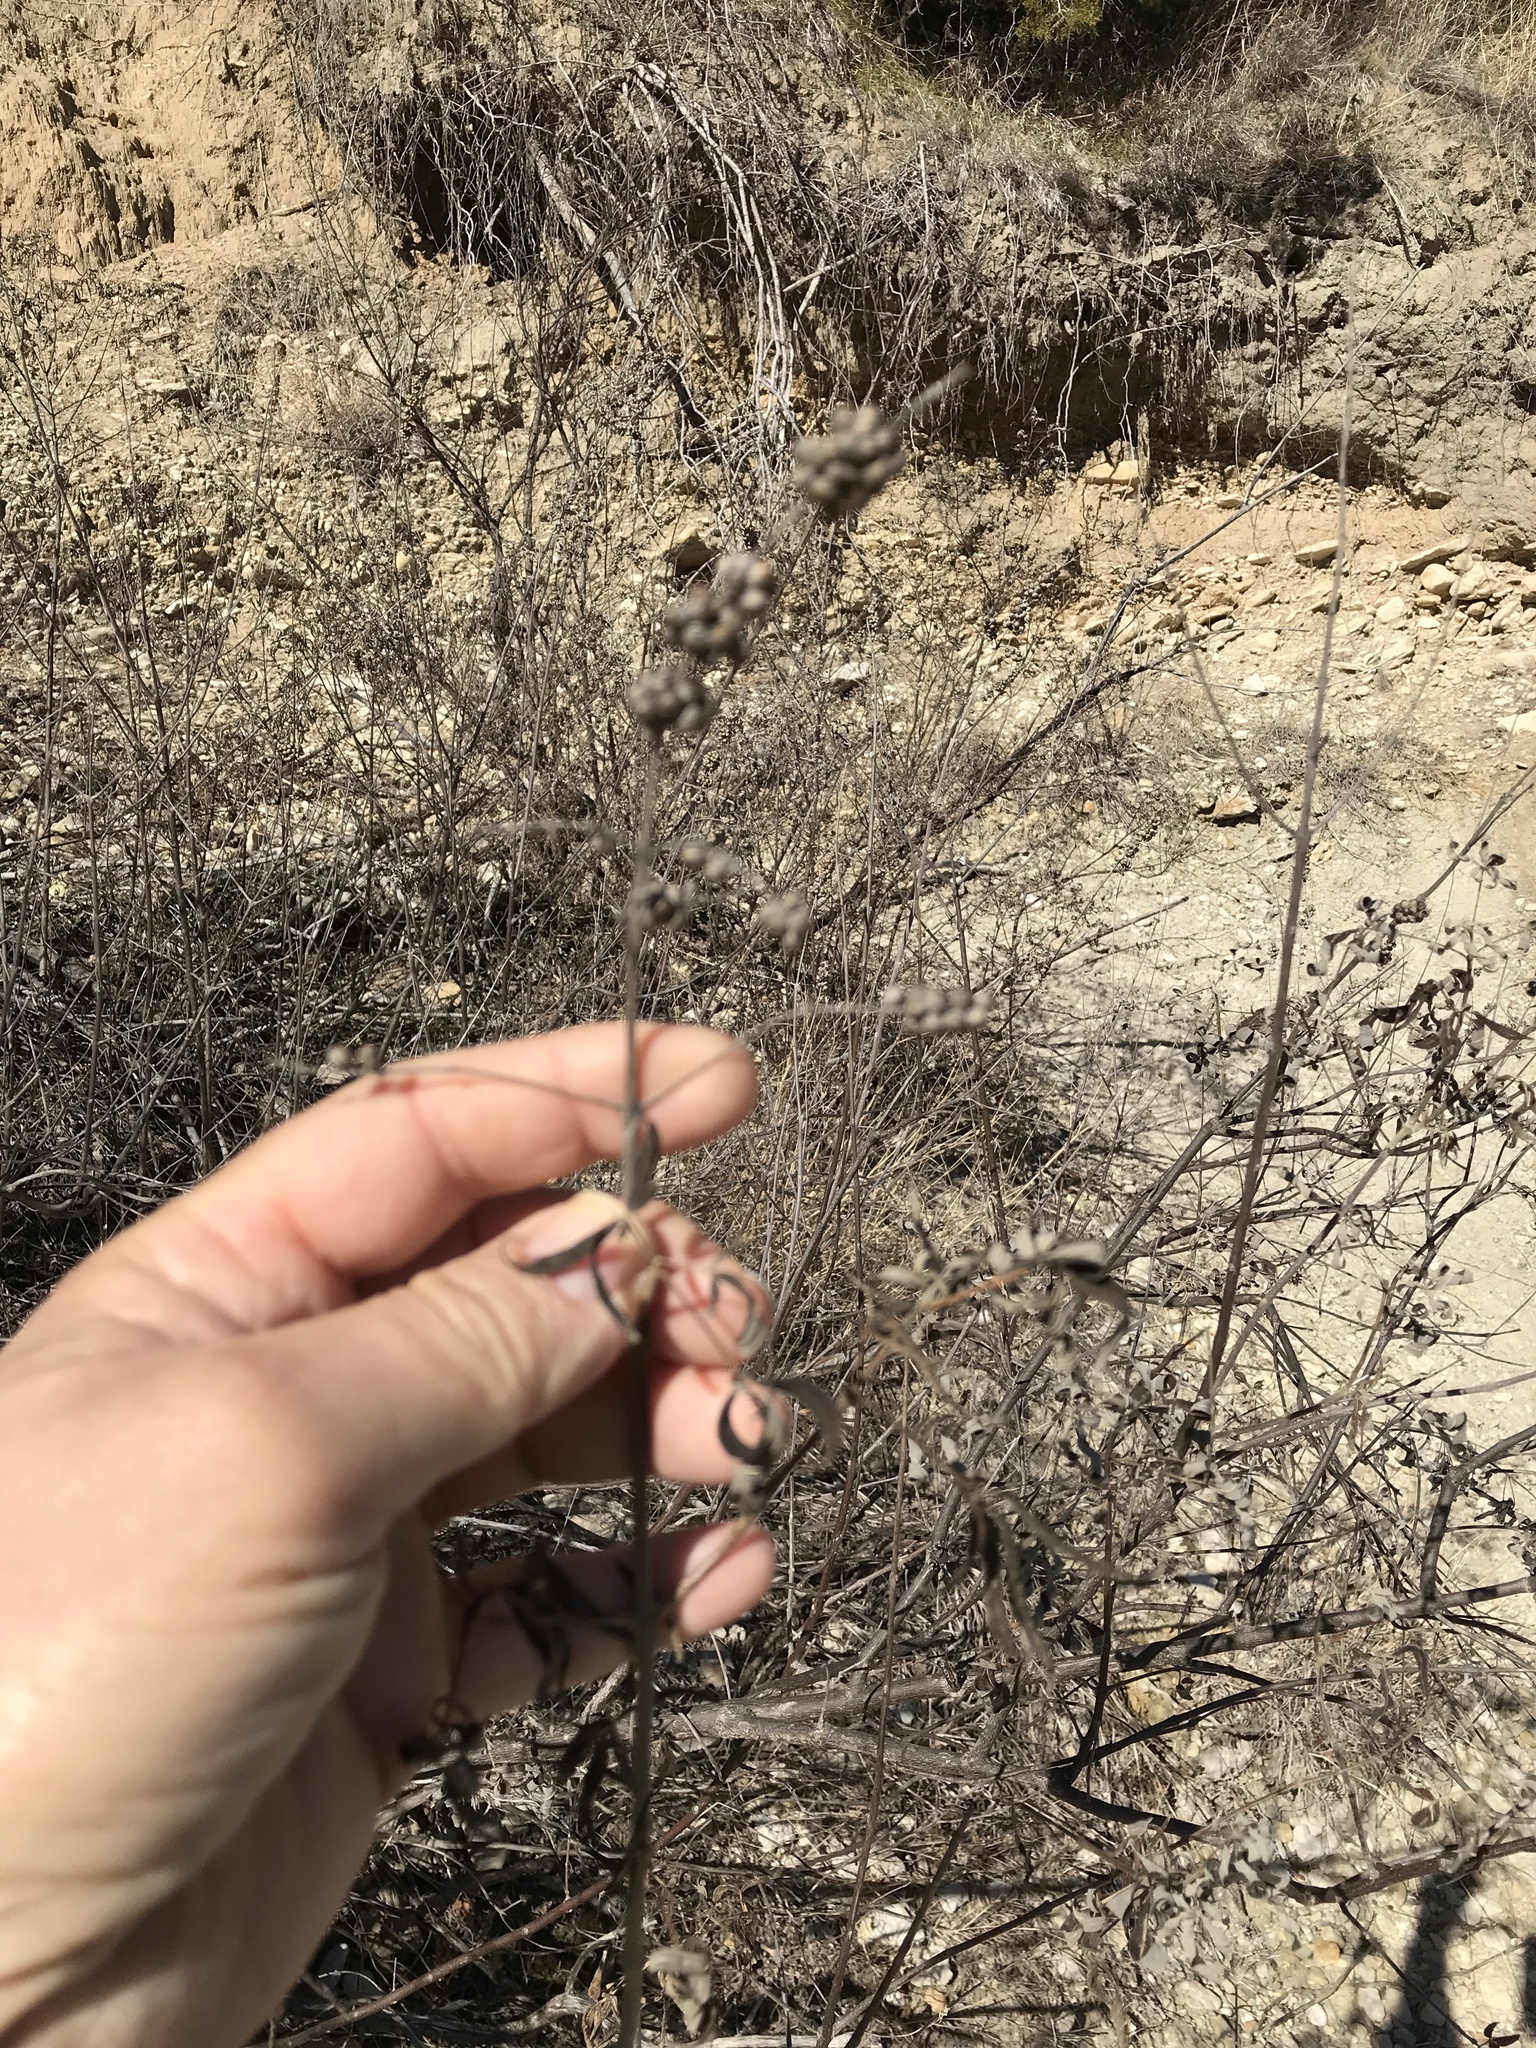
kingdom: Plantae
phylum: Tracheophyta
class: Magnoliopsida
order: Lamiales
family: Lamiaceae
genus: Vitex
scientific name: Vitex agnus-castus
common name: Chasteberry
